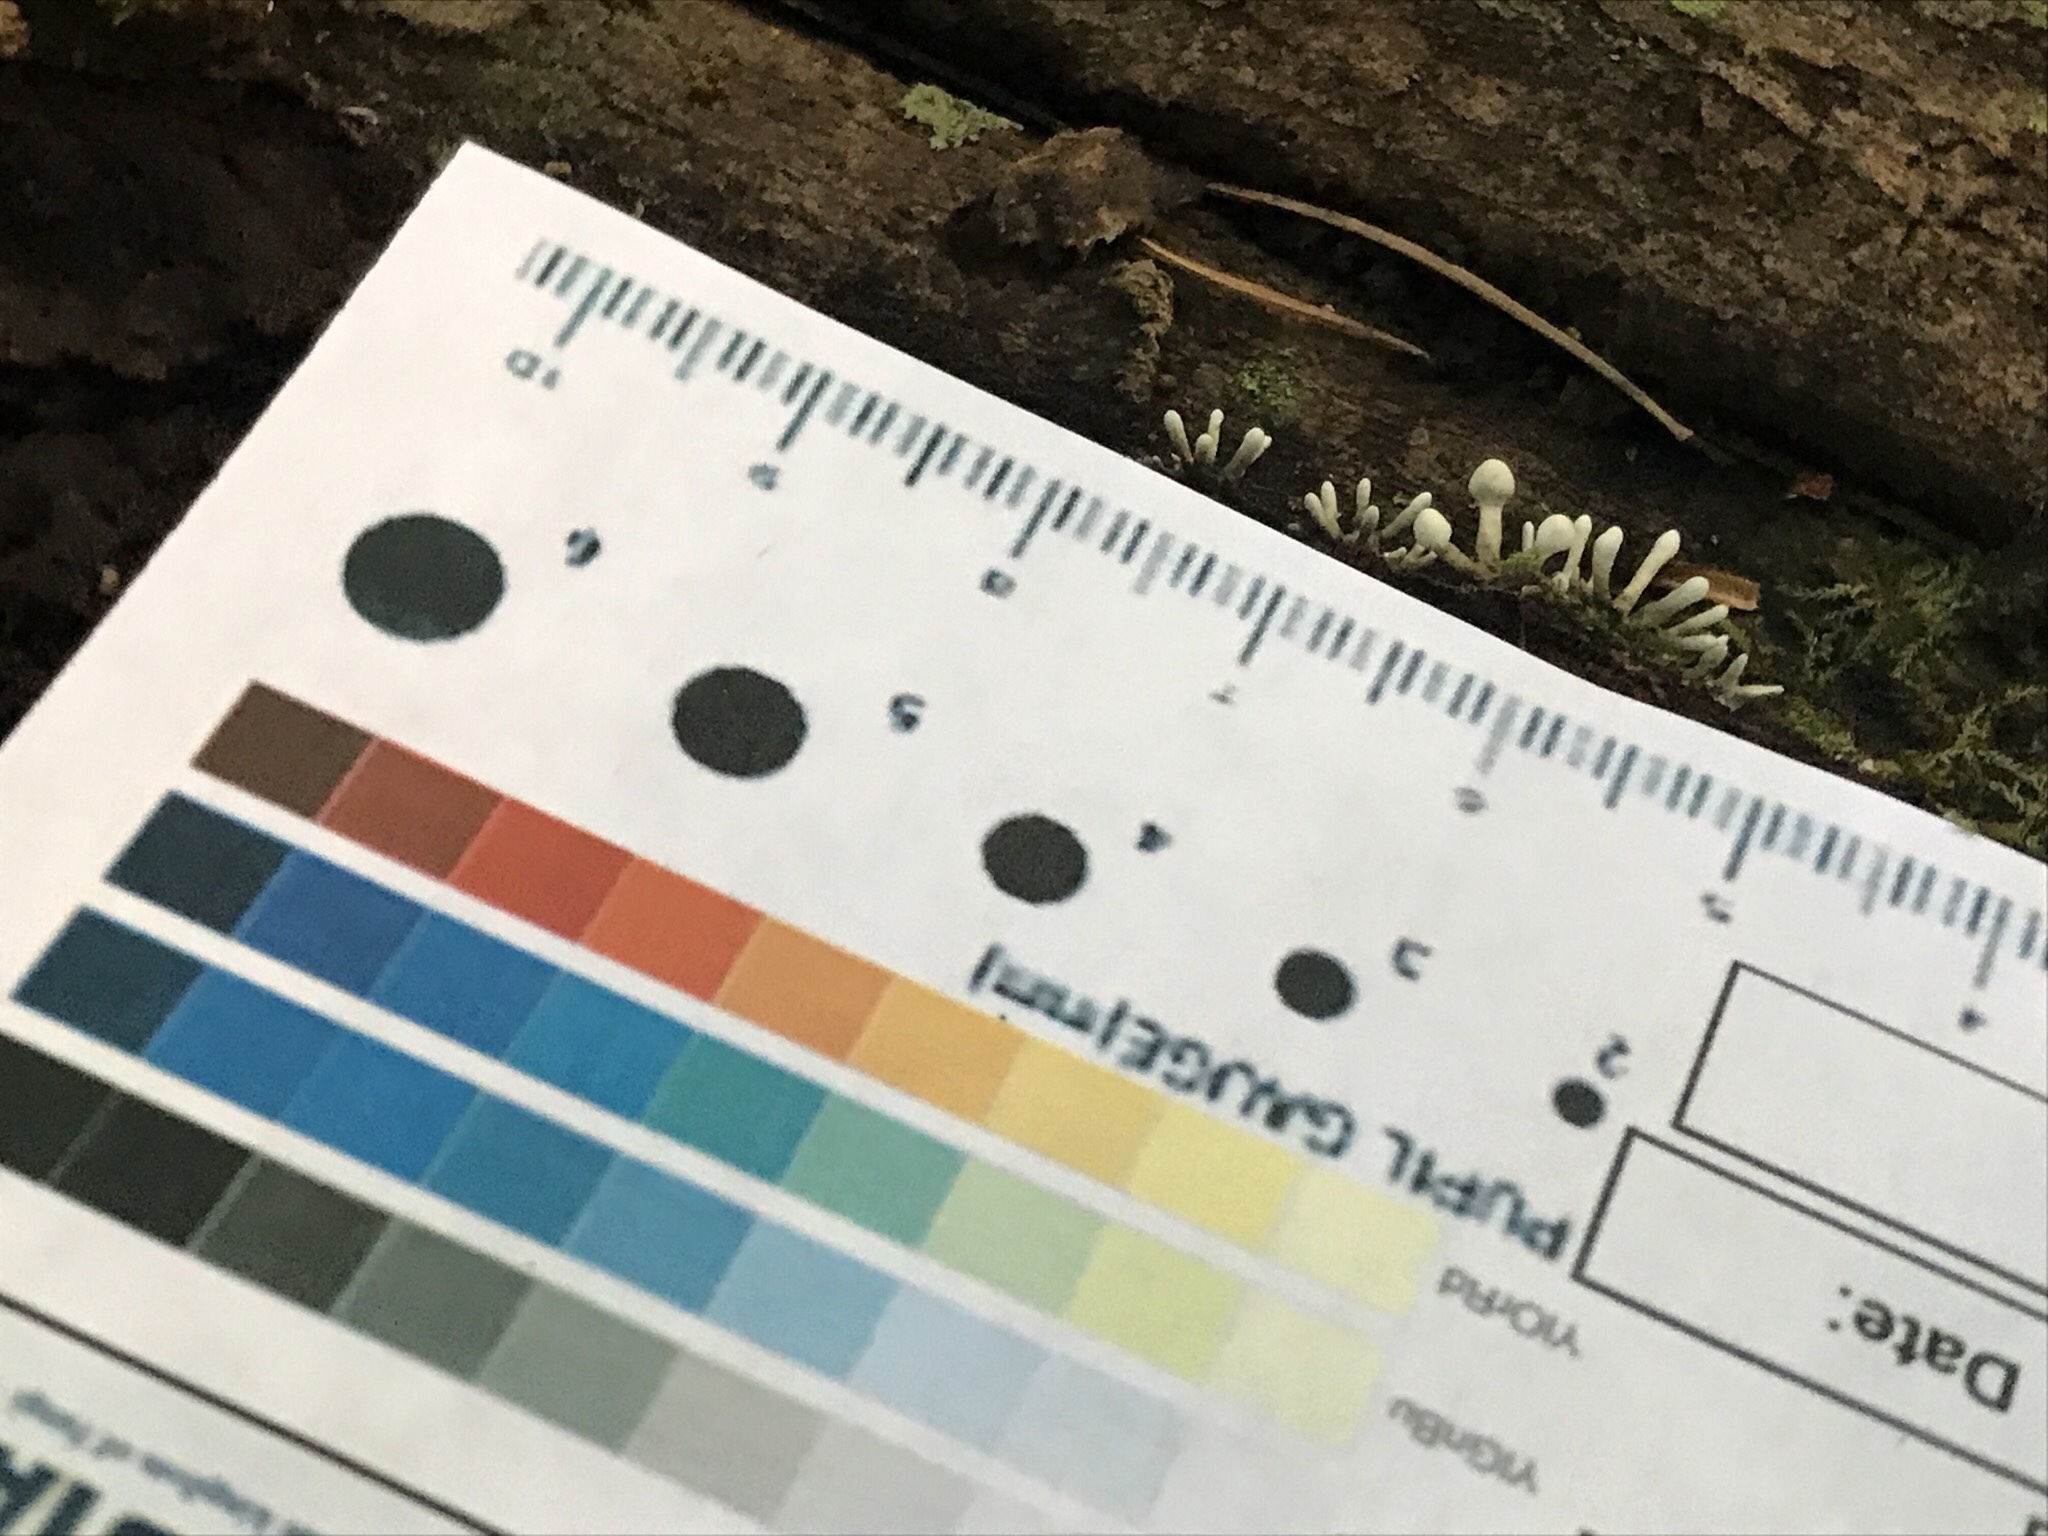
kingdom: Fungi
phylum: Basidiomycota
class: Atractiellomycetes
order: Atractiellales
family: Phleogenaceae
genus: Phleogena
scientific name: Phleogena faginea
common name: Fenugreek stalkball
